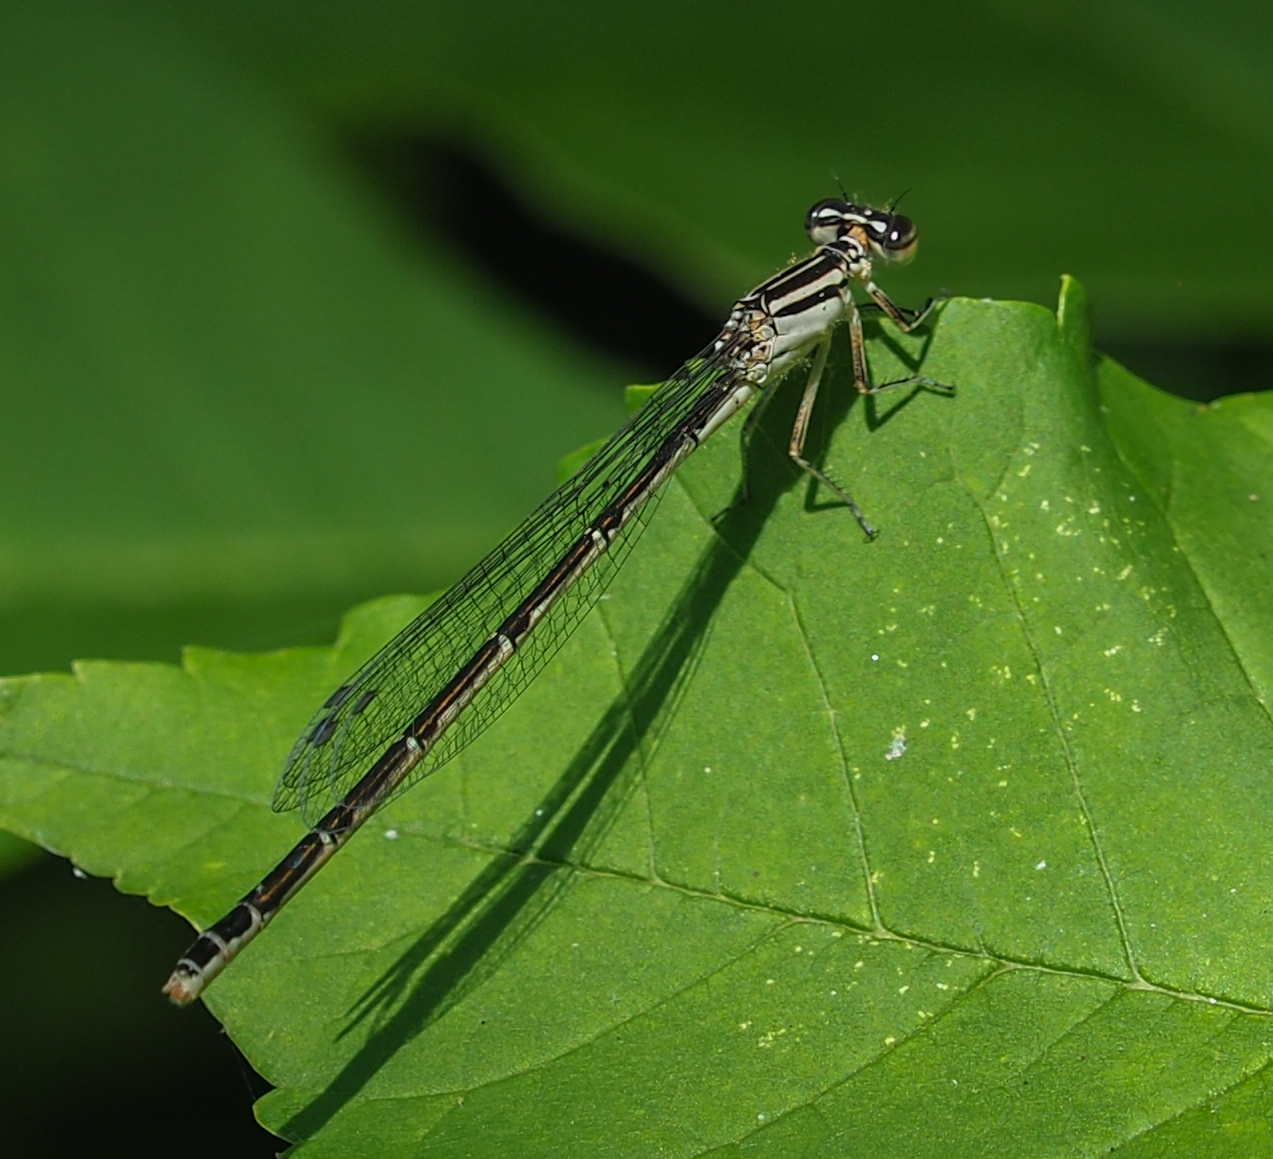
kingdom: Animalia
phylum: Arthropoda
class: Insecta
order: Odonata
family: Coenagrionidae
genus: Enallagma
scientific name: Enallagma durum
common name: Big bluet
